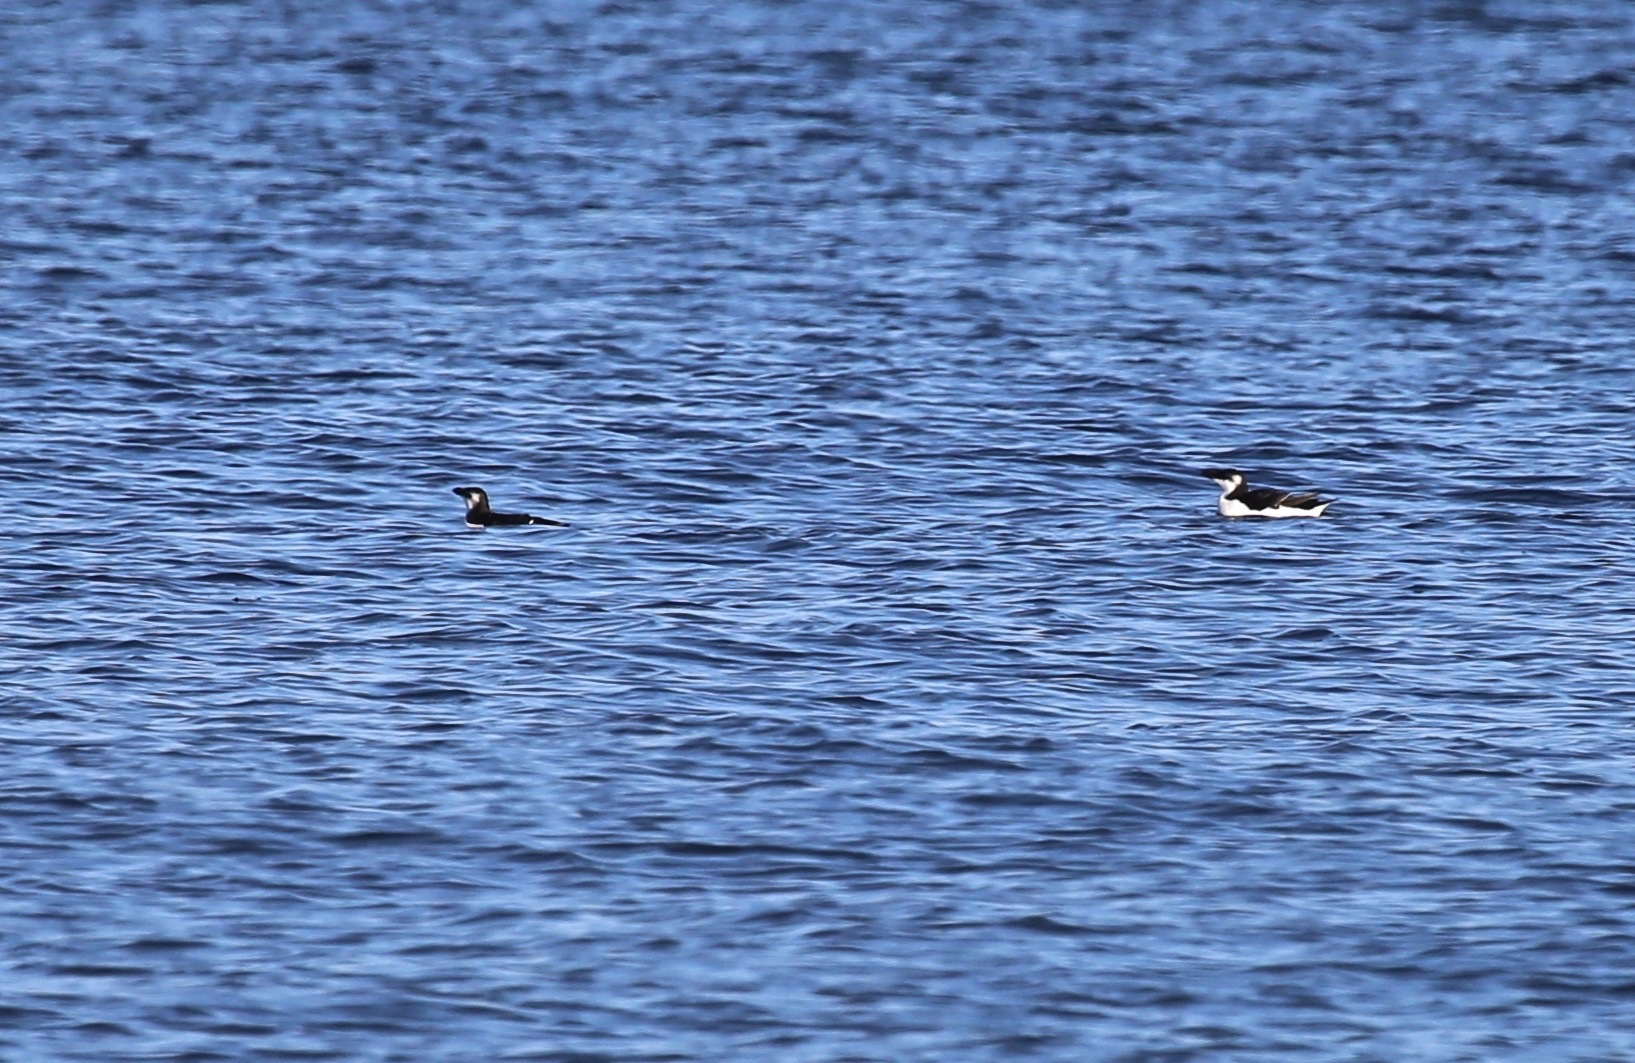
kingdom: Animalia
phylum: Chordata
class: Aves
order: Charadriiformes
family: Alcidae
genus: Alca
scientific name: Alca torda
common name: Razorbill
